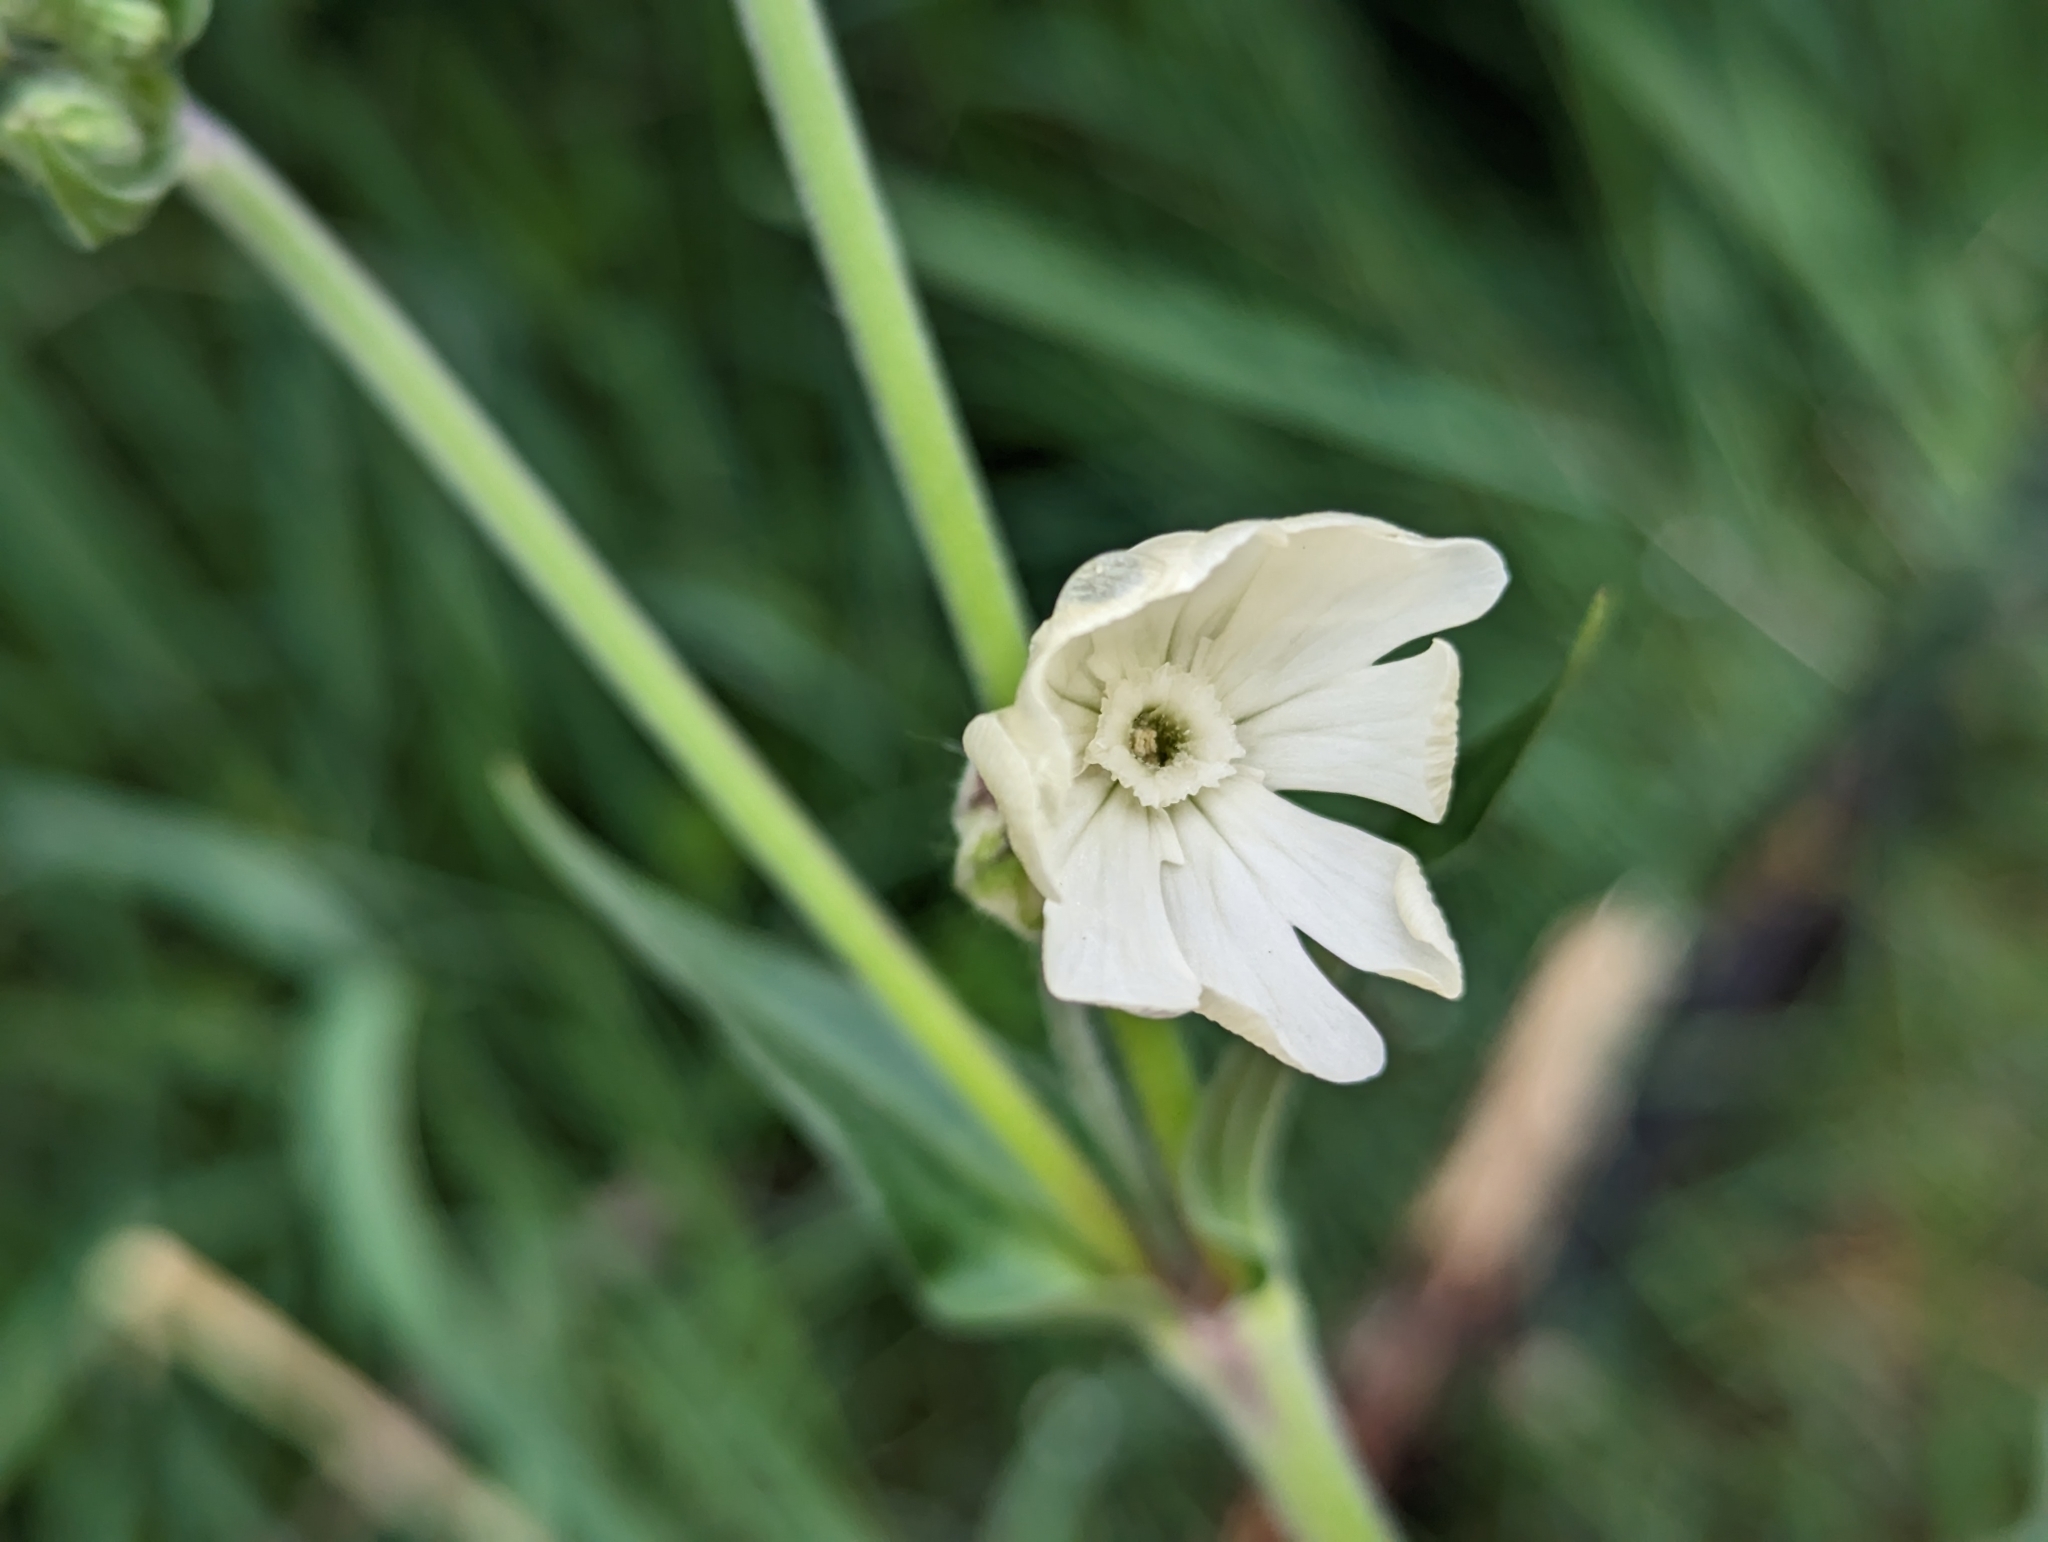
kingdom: Plantae
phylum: Tracheophyta
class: Magnoliopsida
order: Caryophyllales
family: Caryophyllaceae
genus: Silene
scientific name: Silene latifolia
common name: White campion
